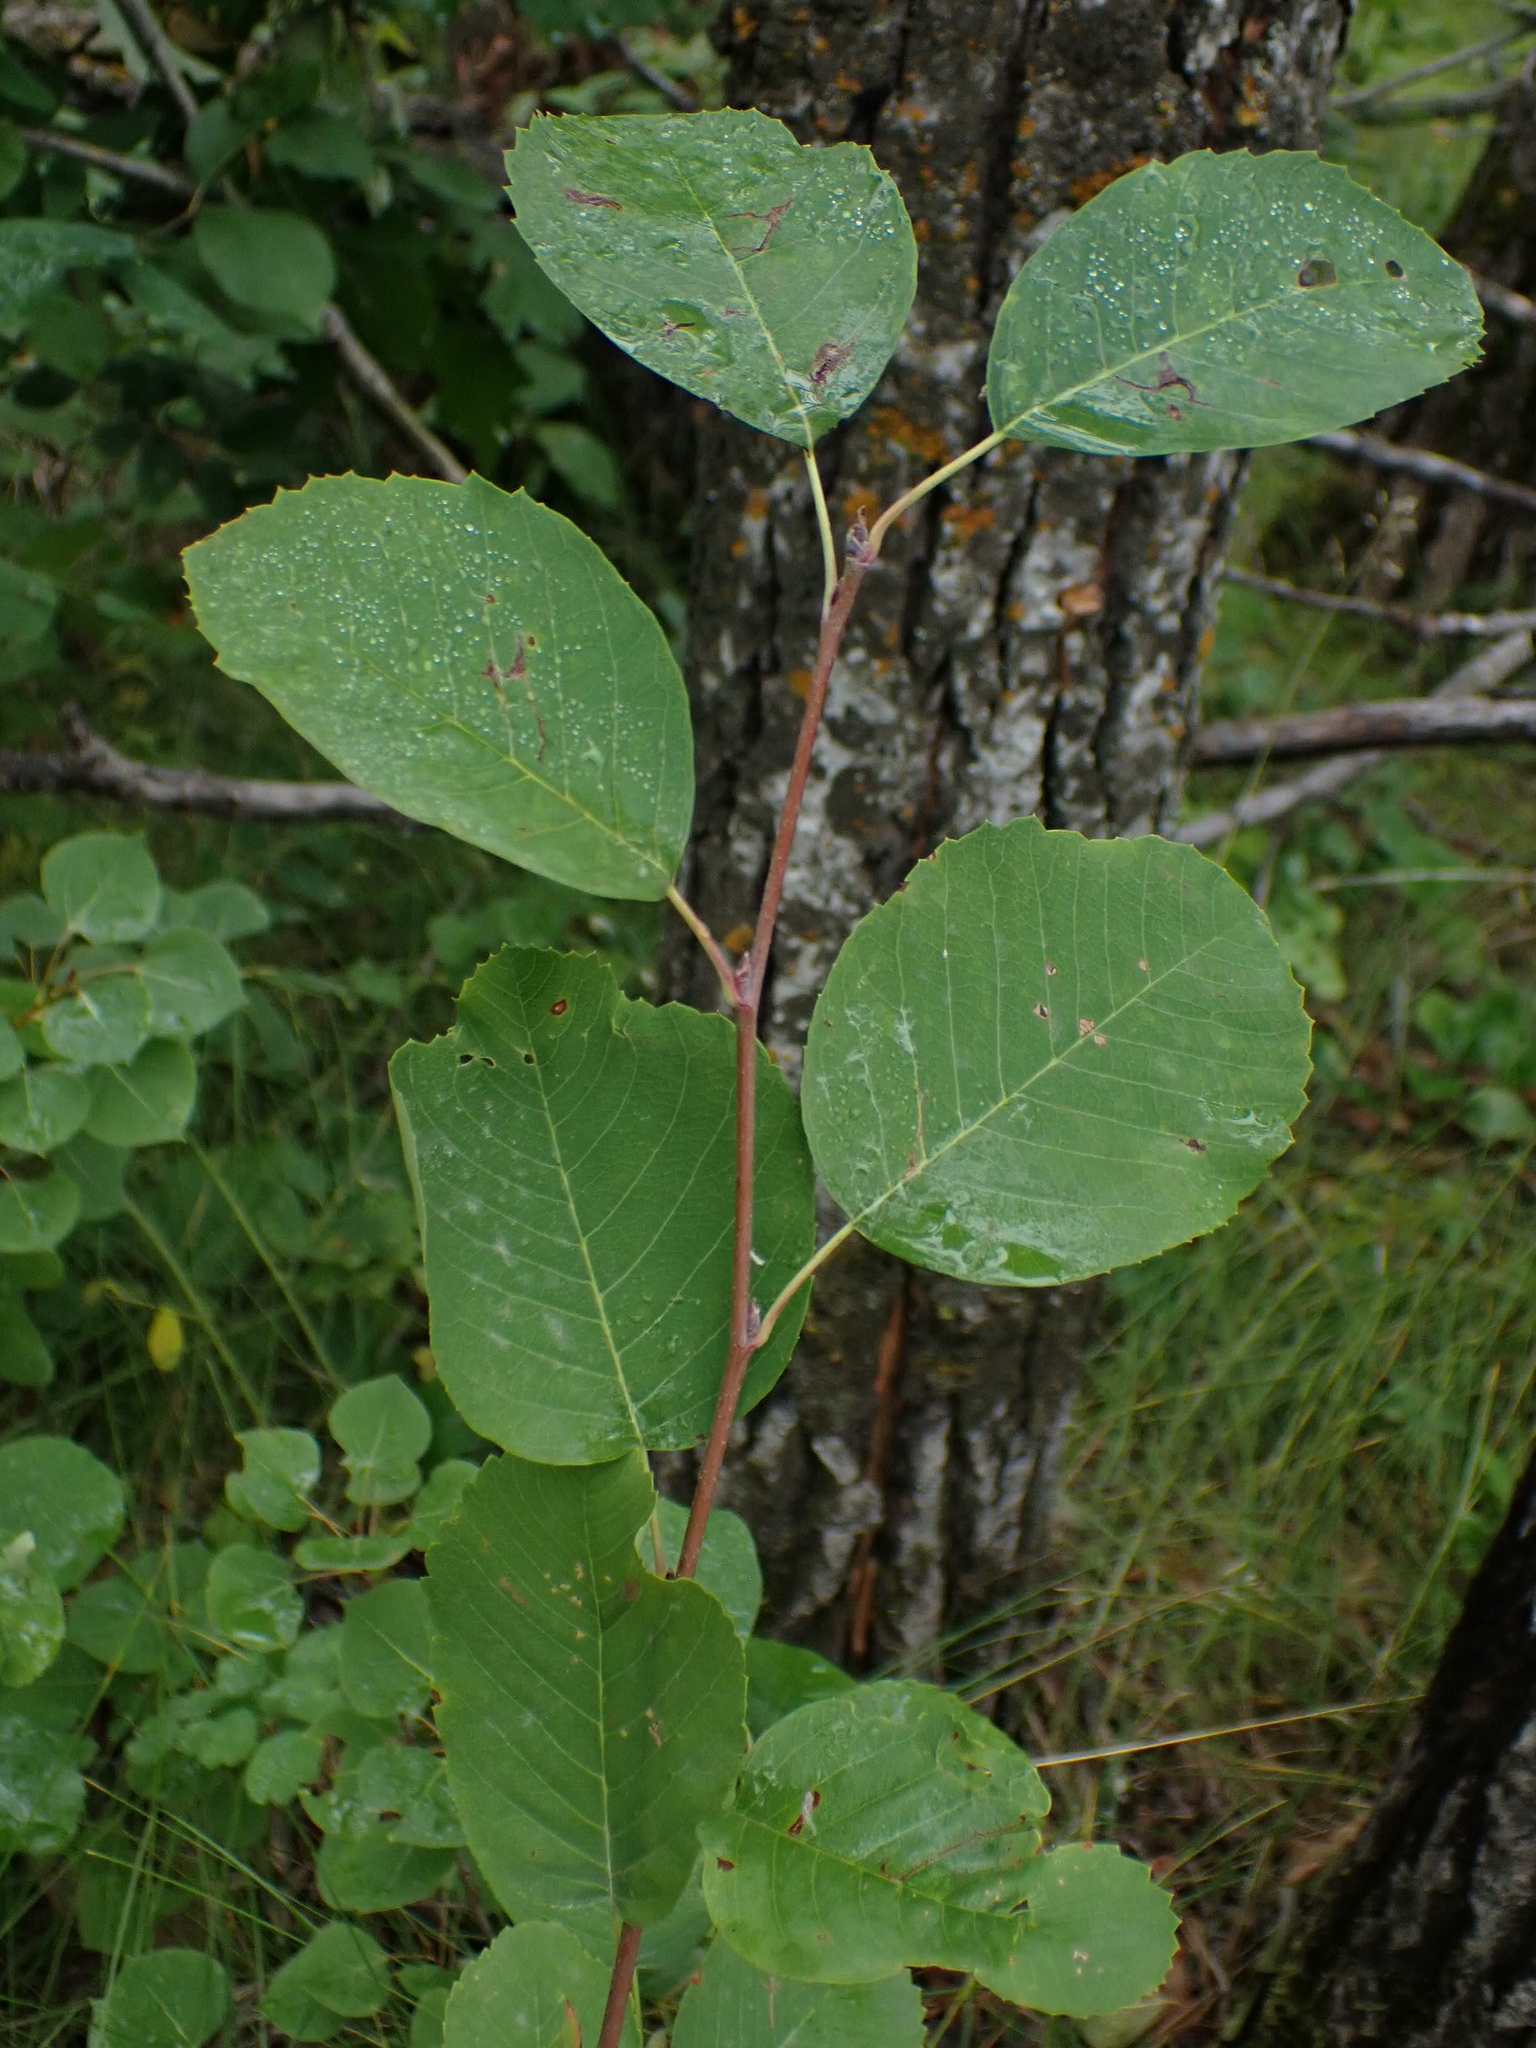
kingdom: Plantae
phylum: Tracheophyta
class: Magnoliopsida
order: Rosales
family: Rosaceae
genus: Amelanchier
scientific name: Amelanchier alnifolia
